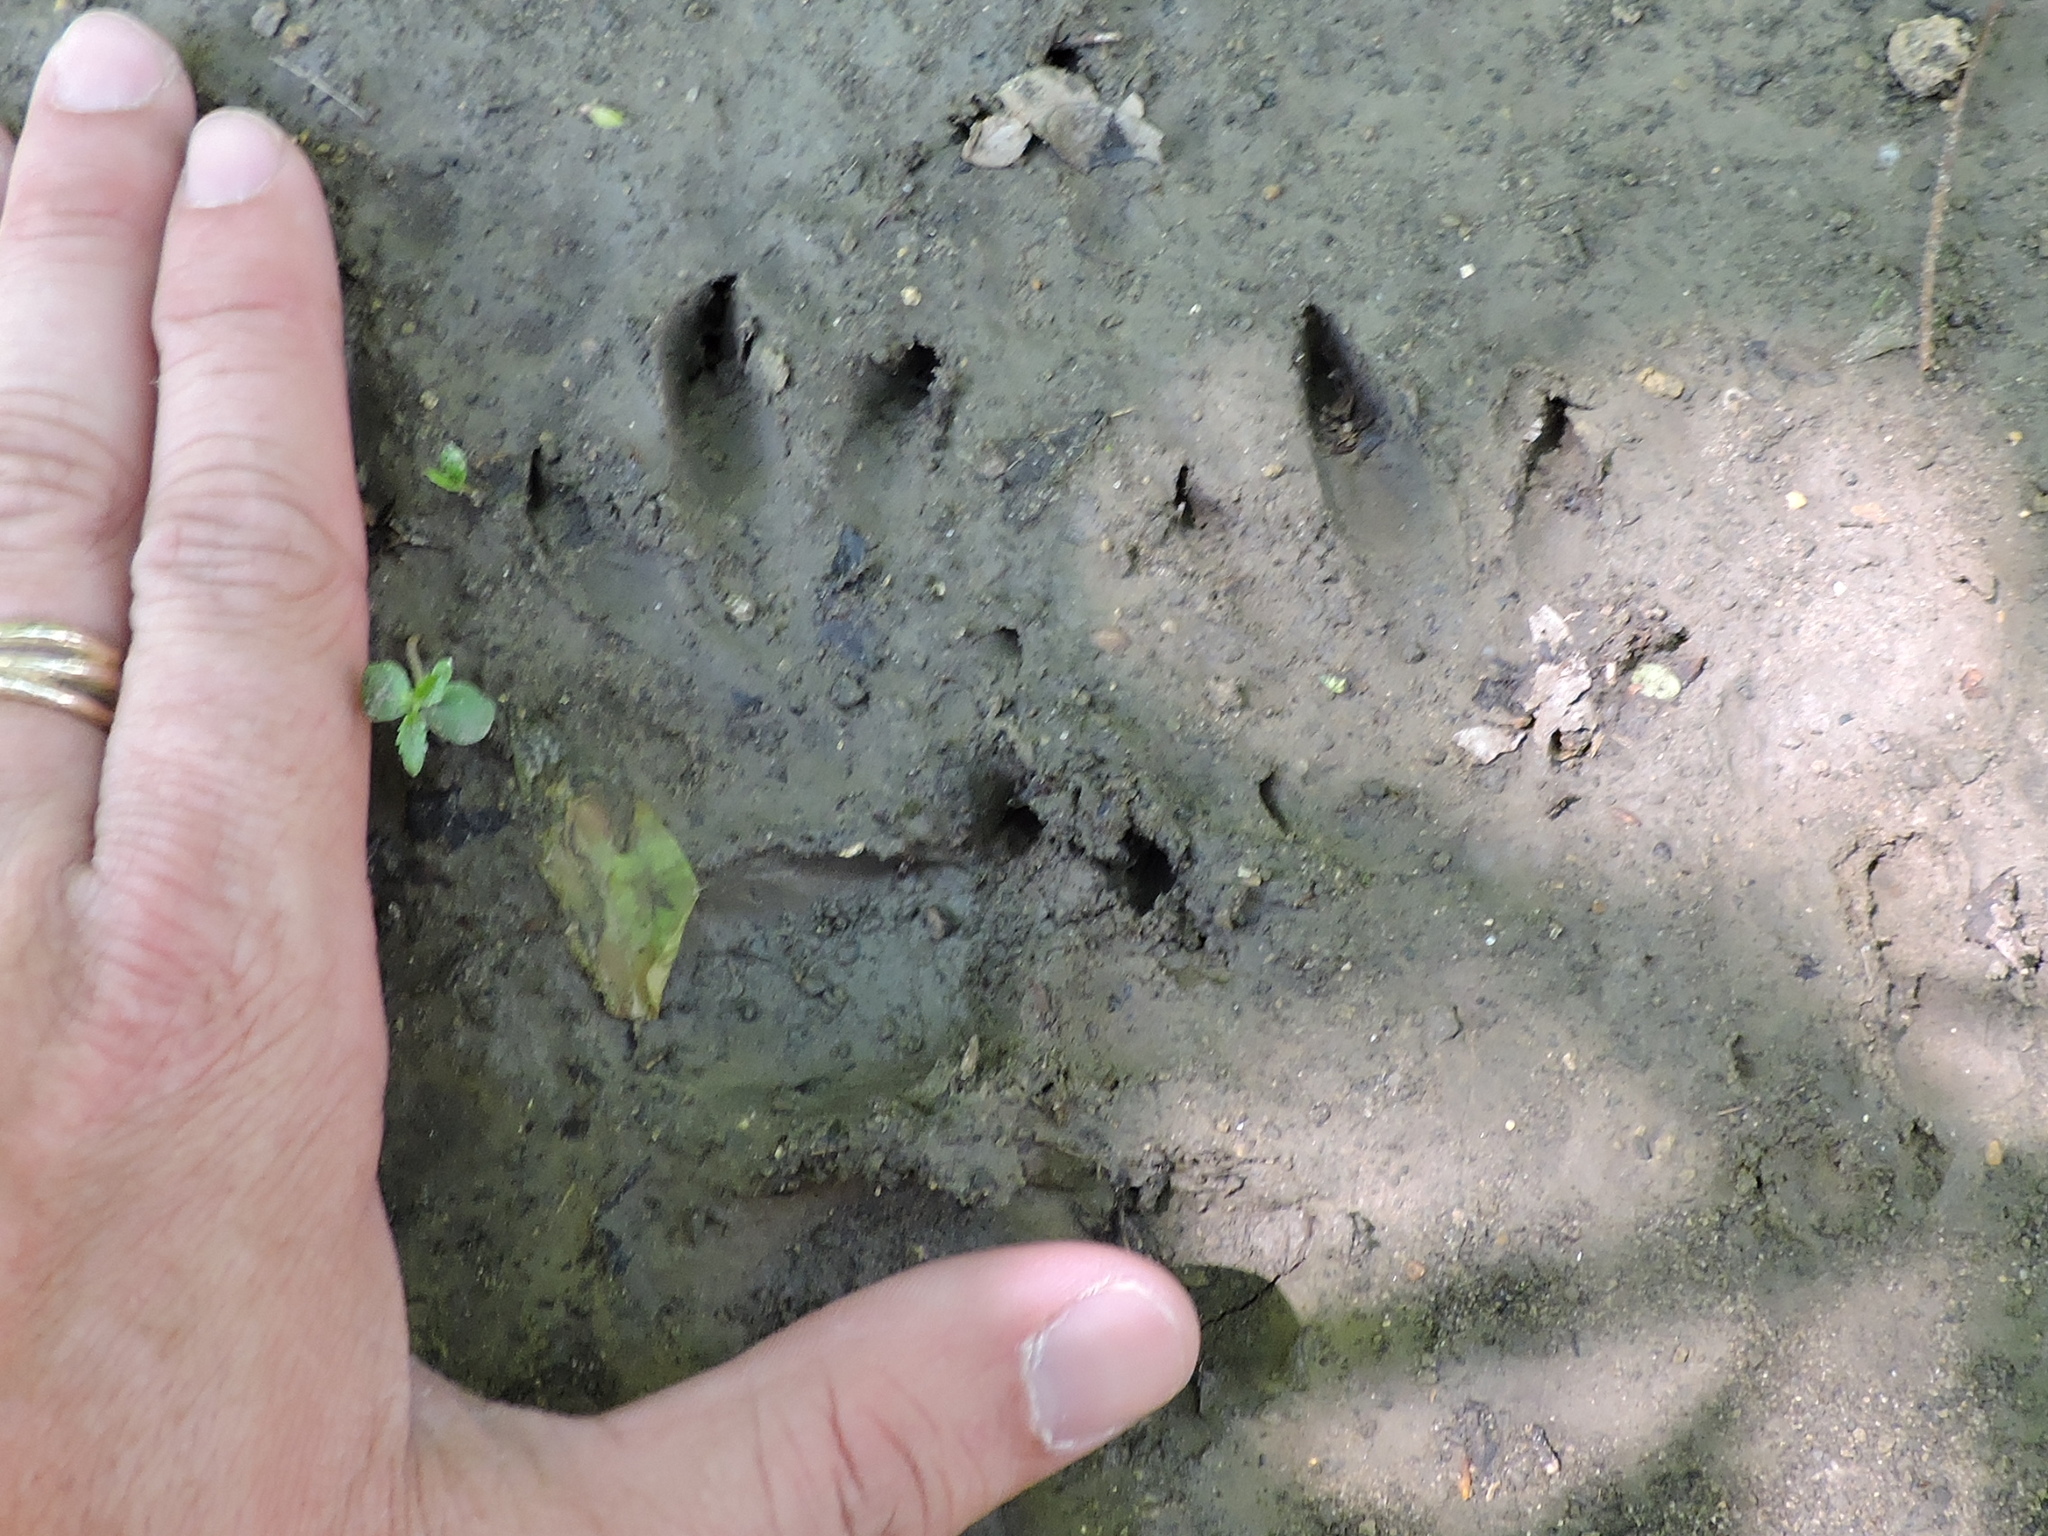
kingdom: Animalia
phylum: Chordata
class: Mammalia
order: Cingulata
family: Dasypodidae
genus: Dasypus
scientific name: Dasypus novemcinctus
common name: Nine-banded armadillo
